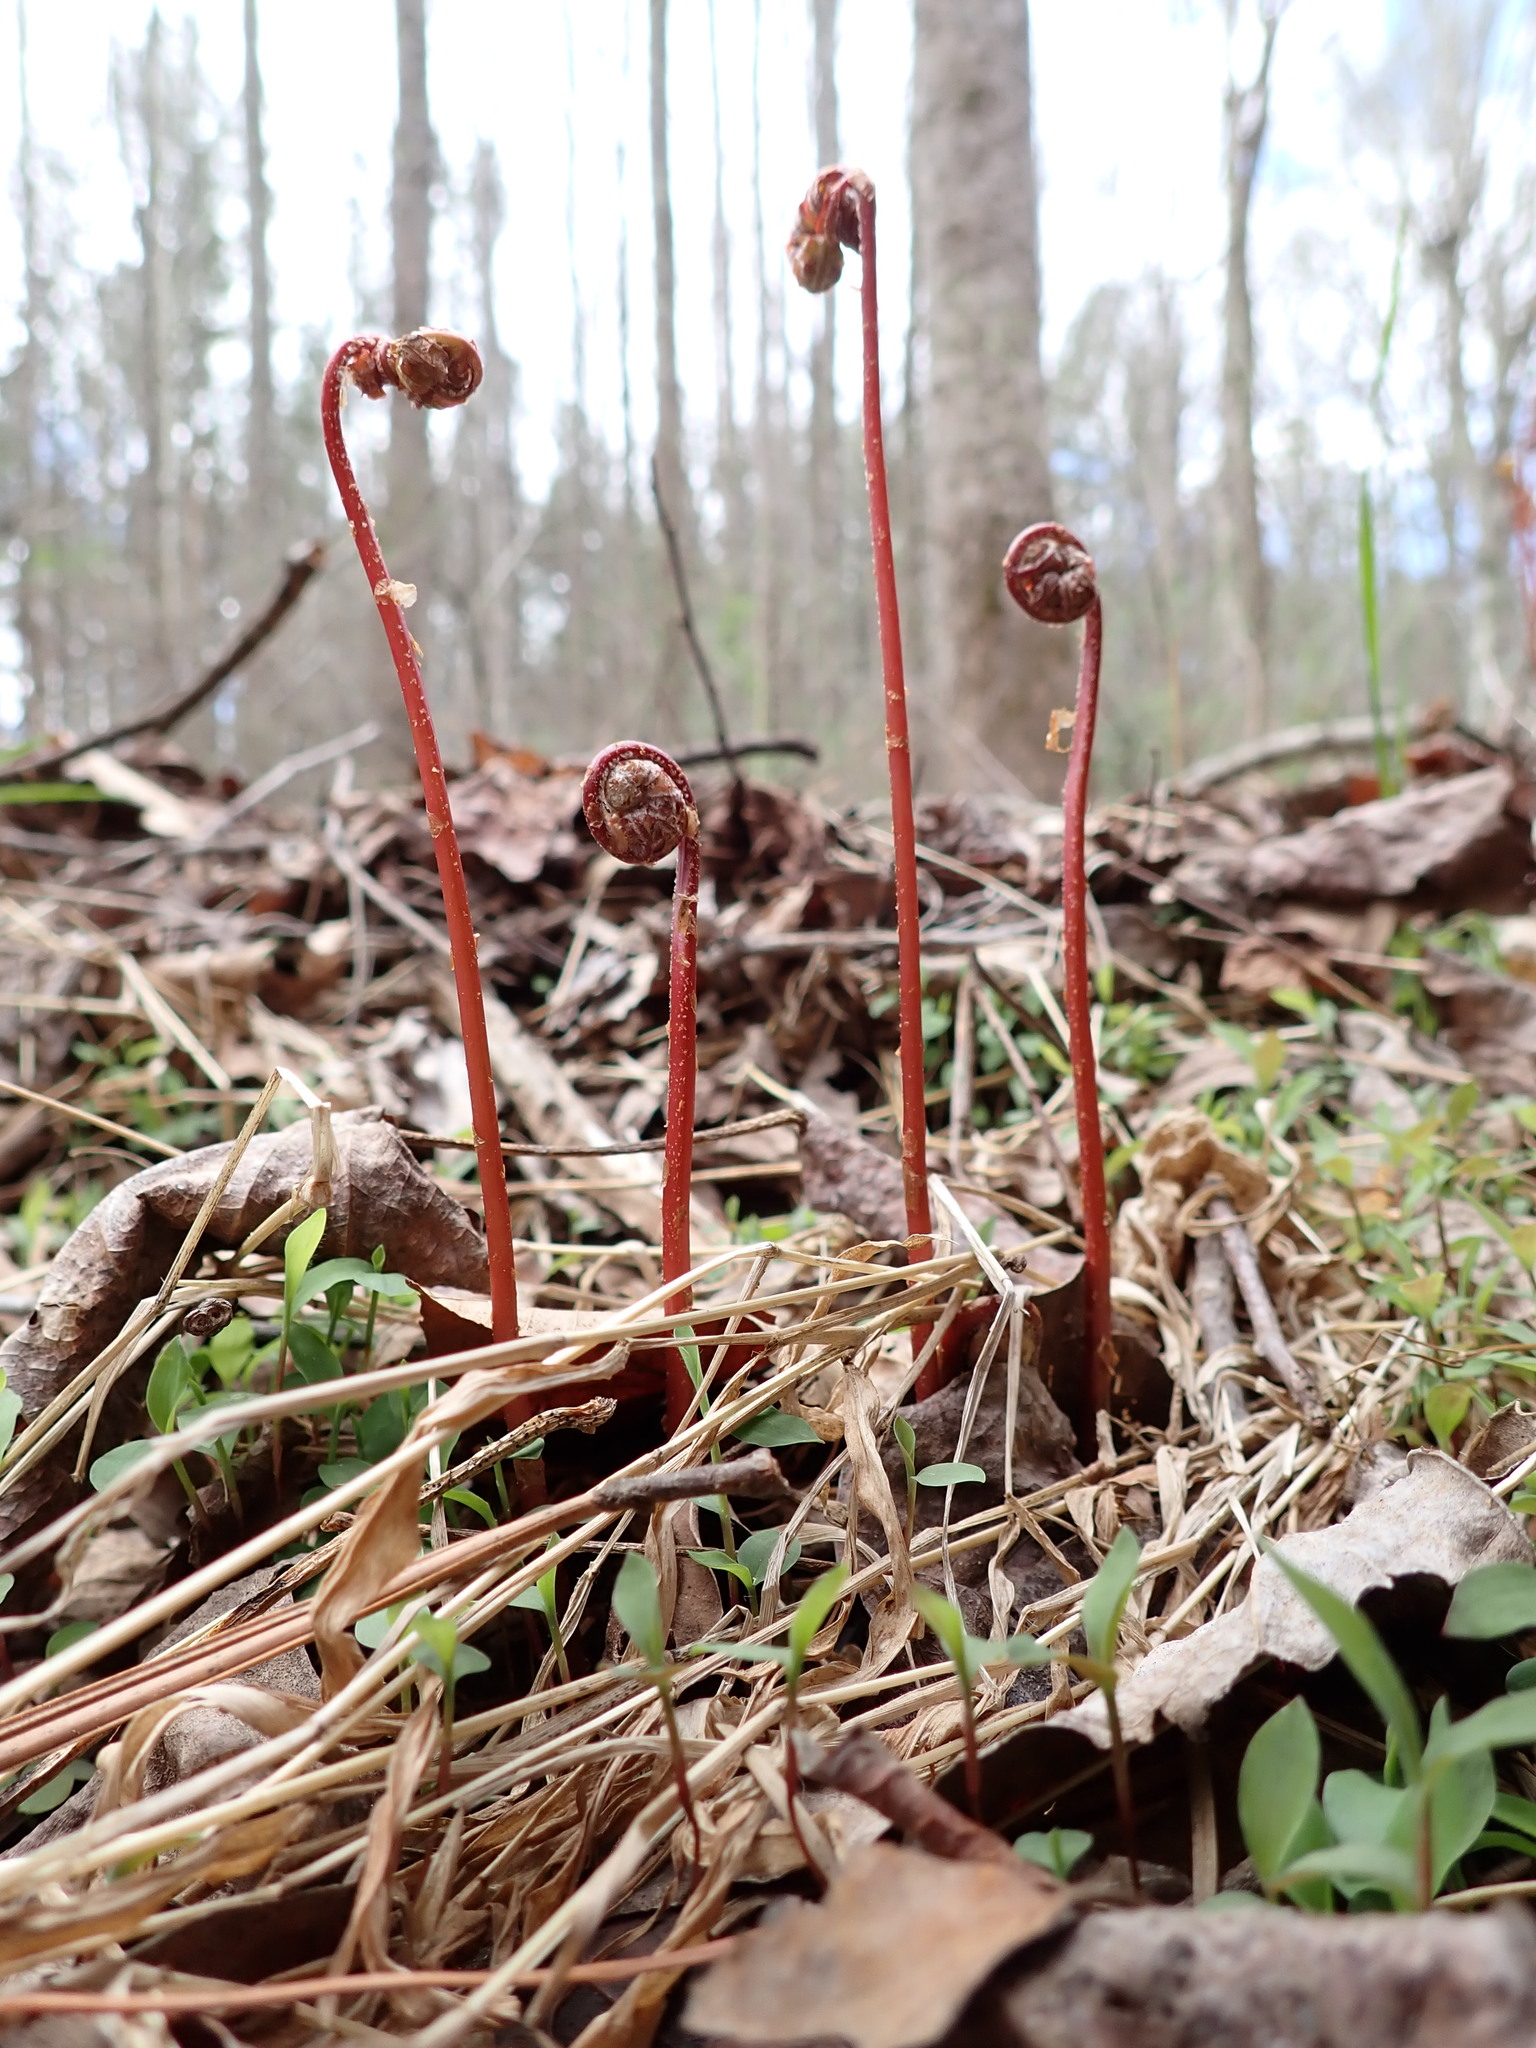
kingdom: Plantae
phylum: Tracheophyta
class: Polypodiopsida
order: Polypodiales
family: Onocleaceae
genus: Onoclea
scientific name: Onoclea sensibilis
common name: Sensitive fern
